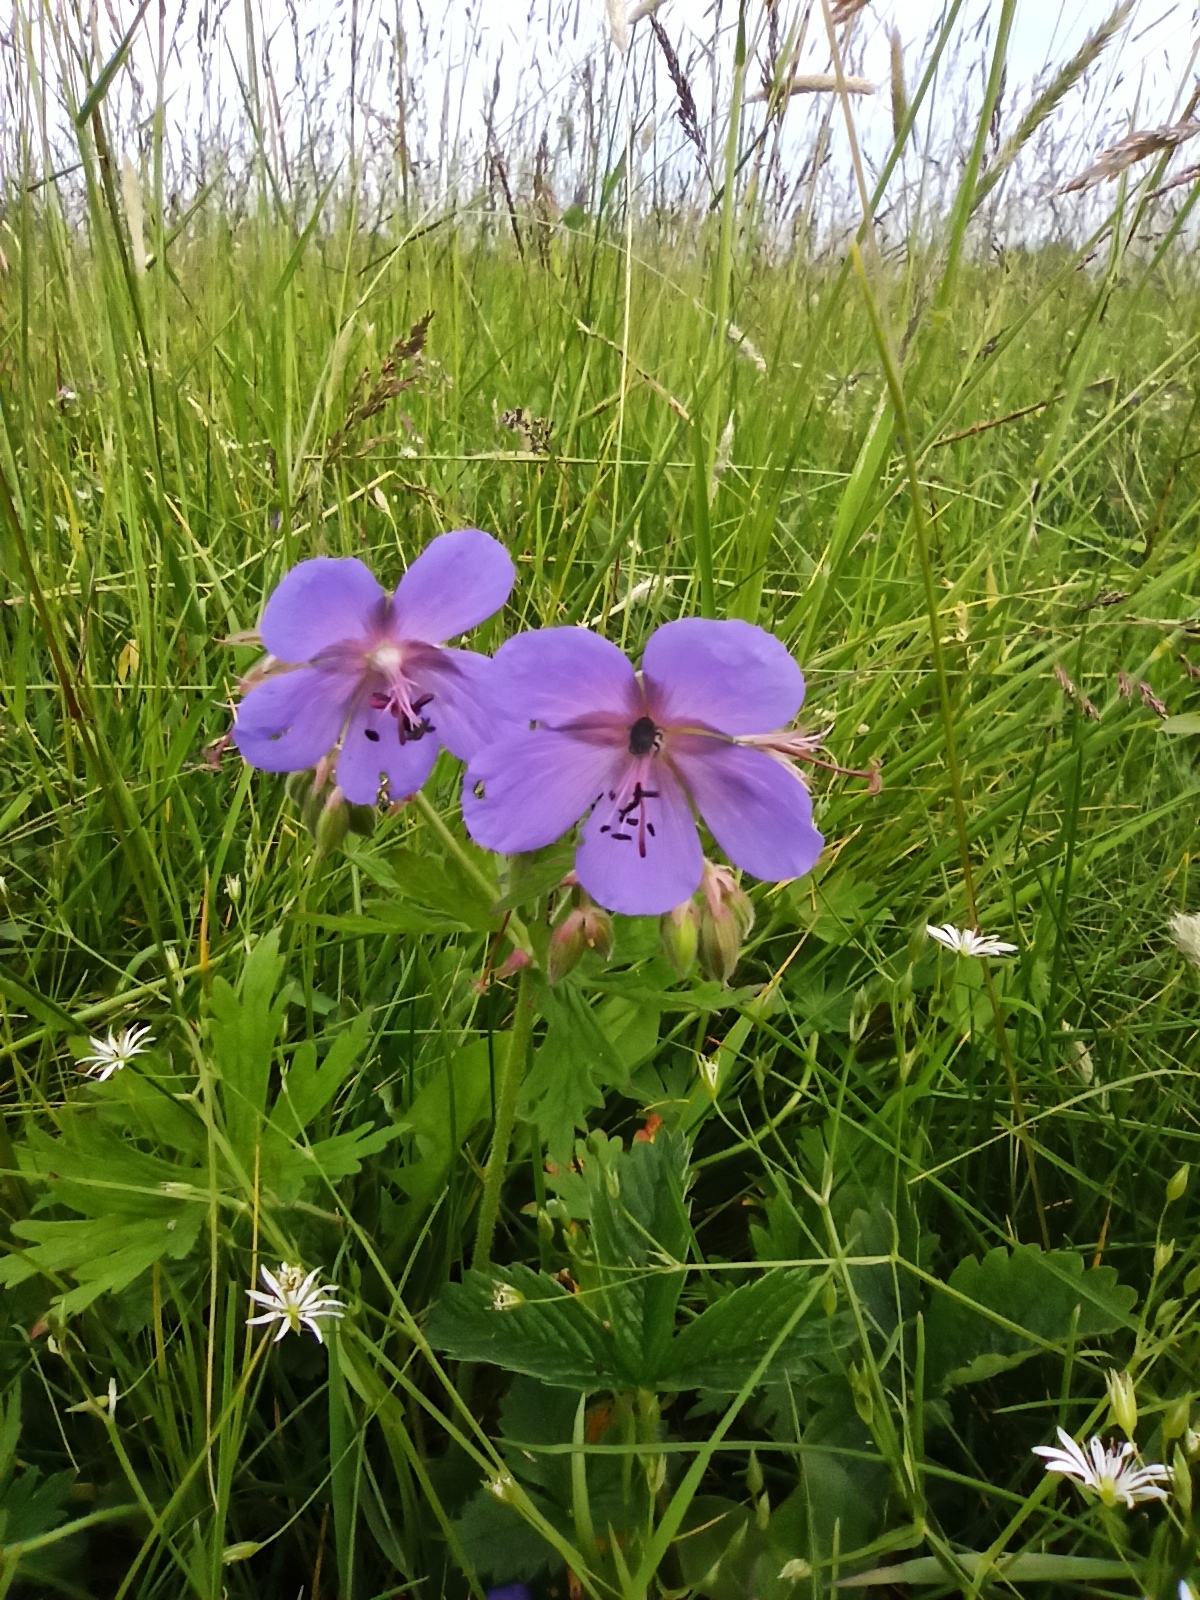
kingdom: Plantae
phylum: Tracheophyta
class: Magnoliopsida
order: Geraniales
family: Geraniaceae
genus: Geranium
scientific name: Geranium pratense
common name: Meadow crane's-bill
